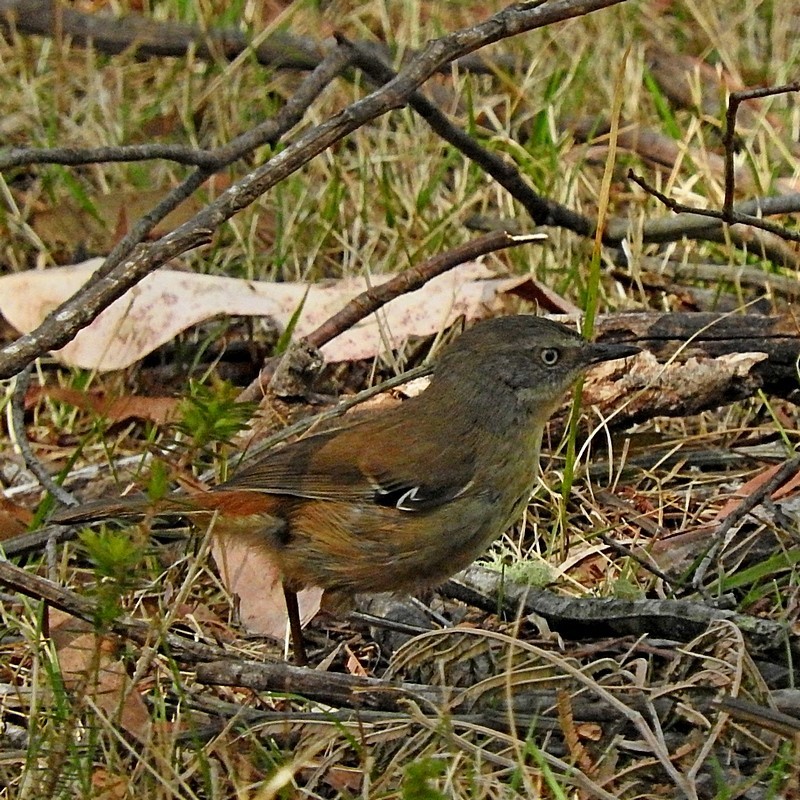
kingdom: Animalia
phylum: Chordata
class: Aves
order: Passeriformes
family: Acanthizidae
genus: Sericornis
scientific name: Sericornis frontalis
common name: White-browed scrubwren
